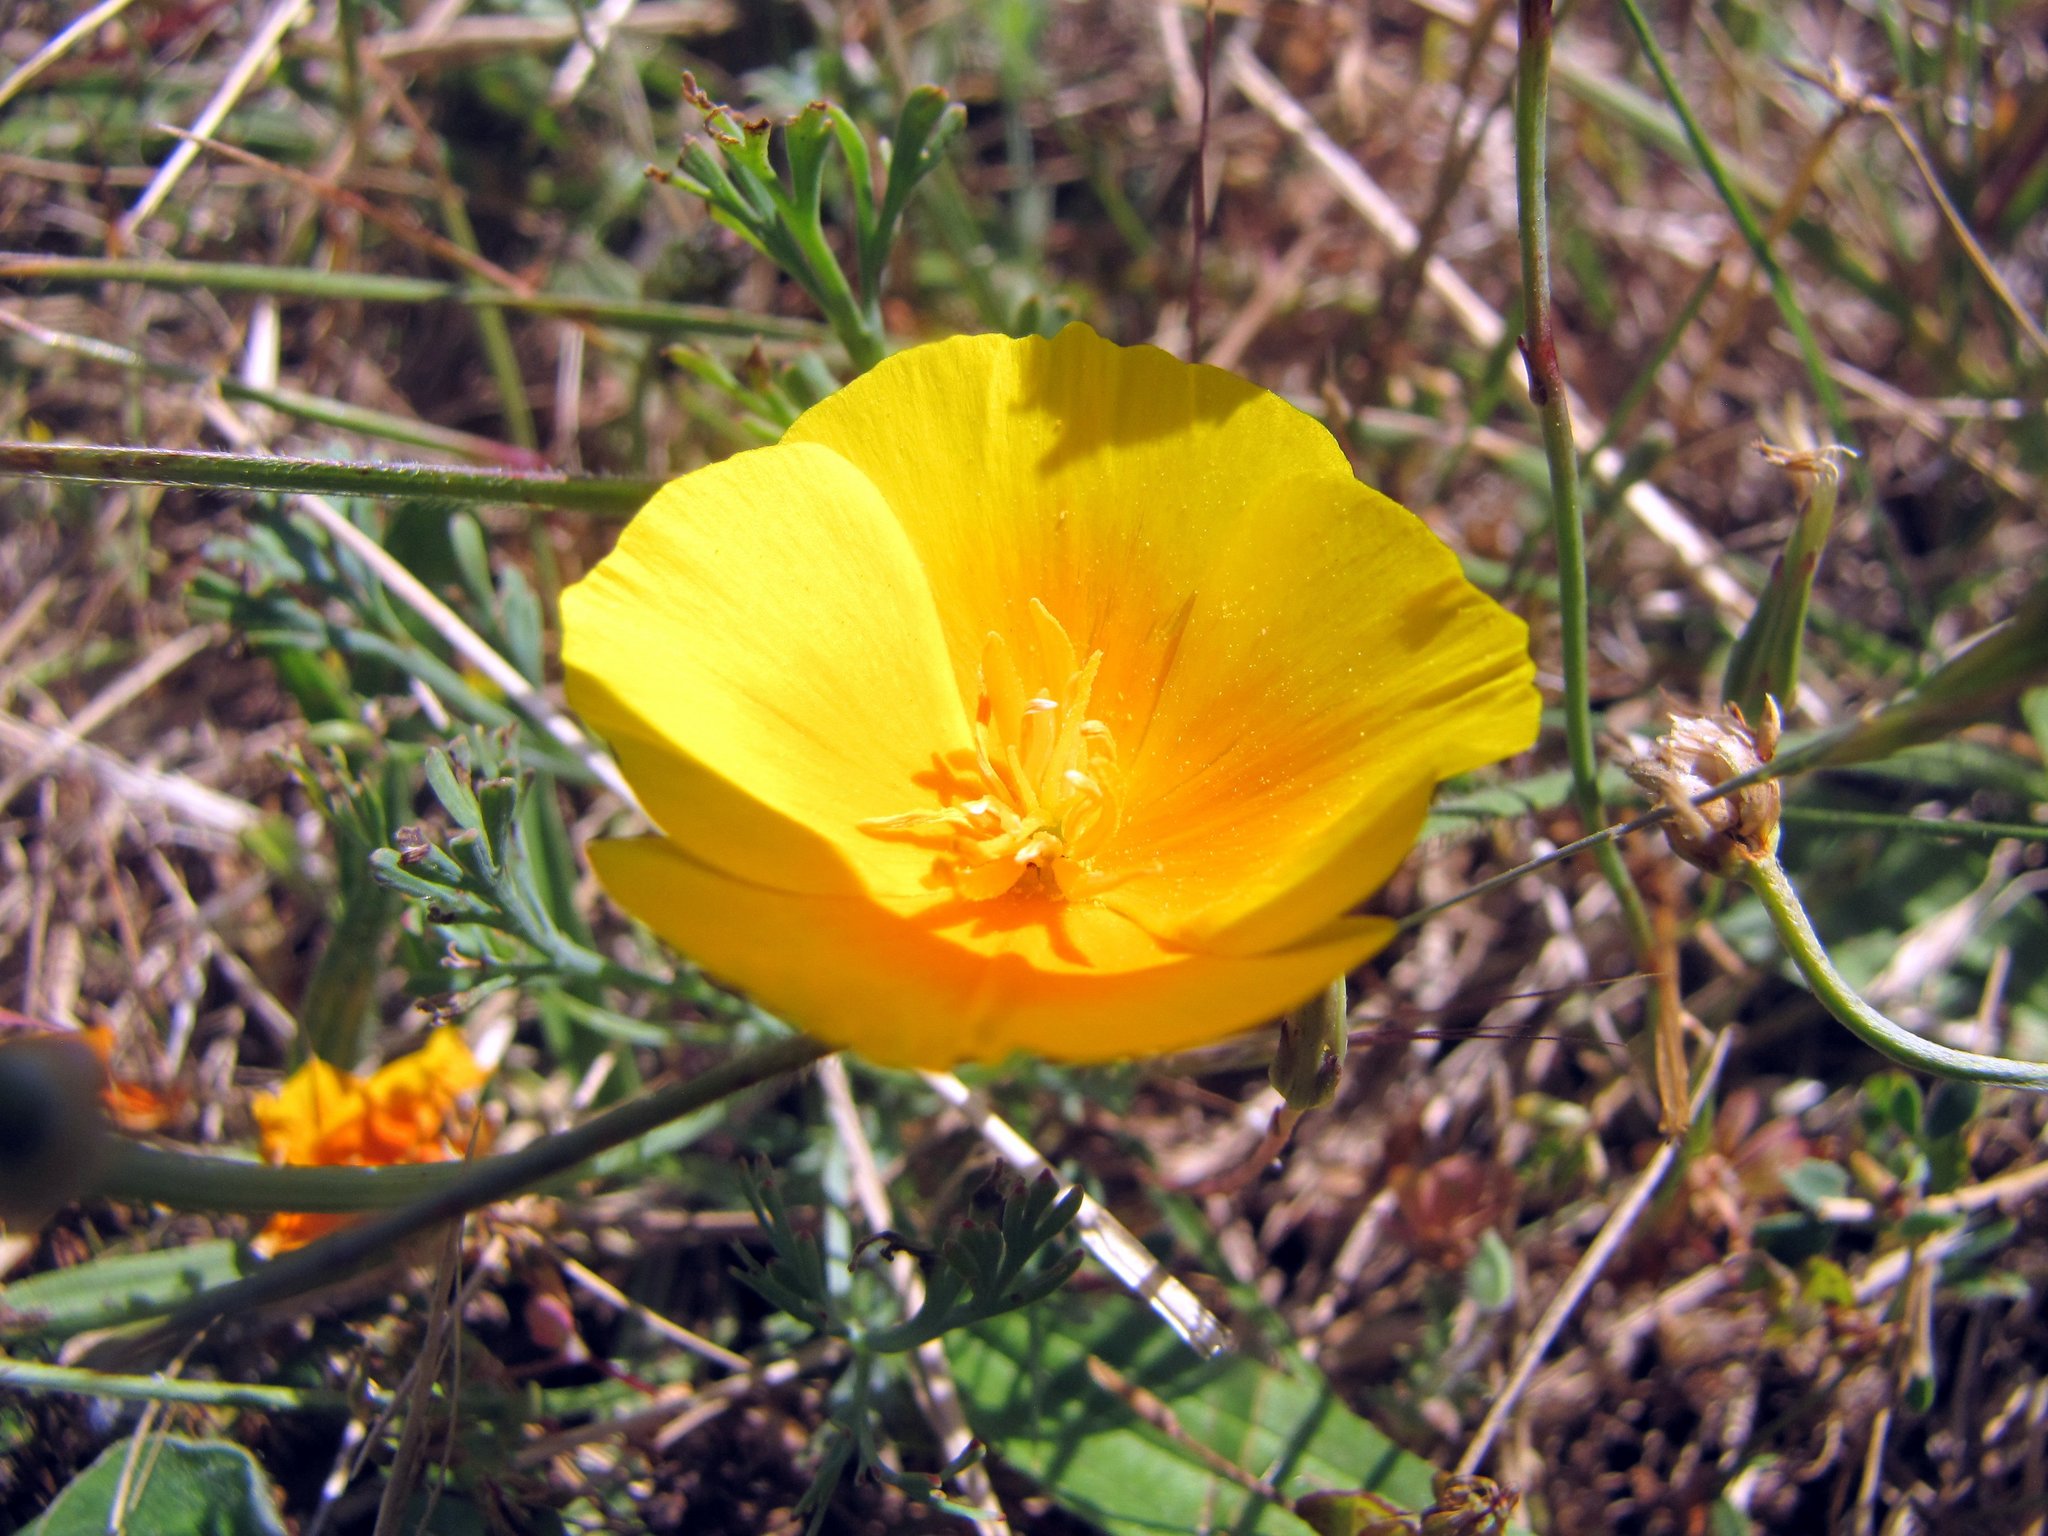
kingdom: Plantae
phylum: Tracheophyta
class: Magnoliopsida
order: Ranunculales
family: Papaveraceae
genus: Eschscholzia
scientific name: Eschscholzia californica
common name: California poppy
